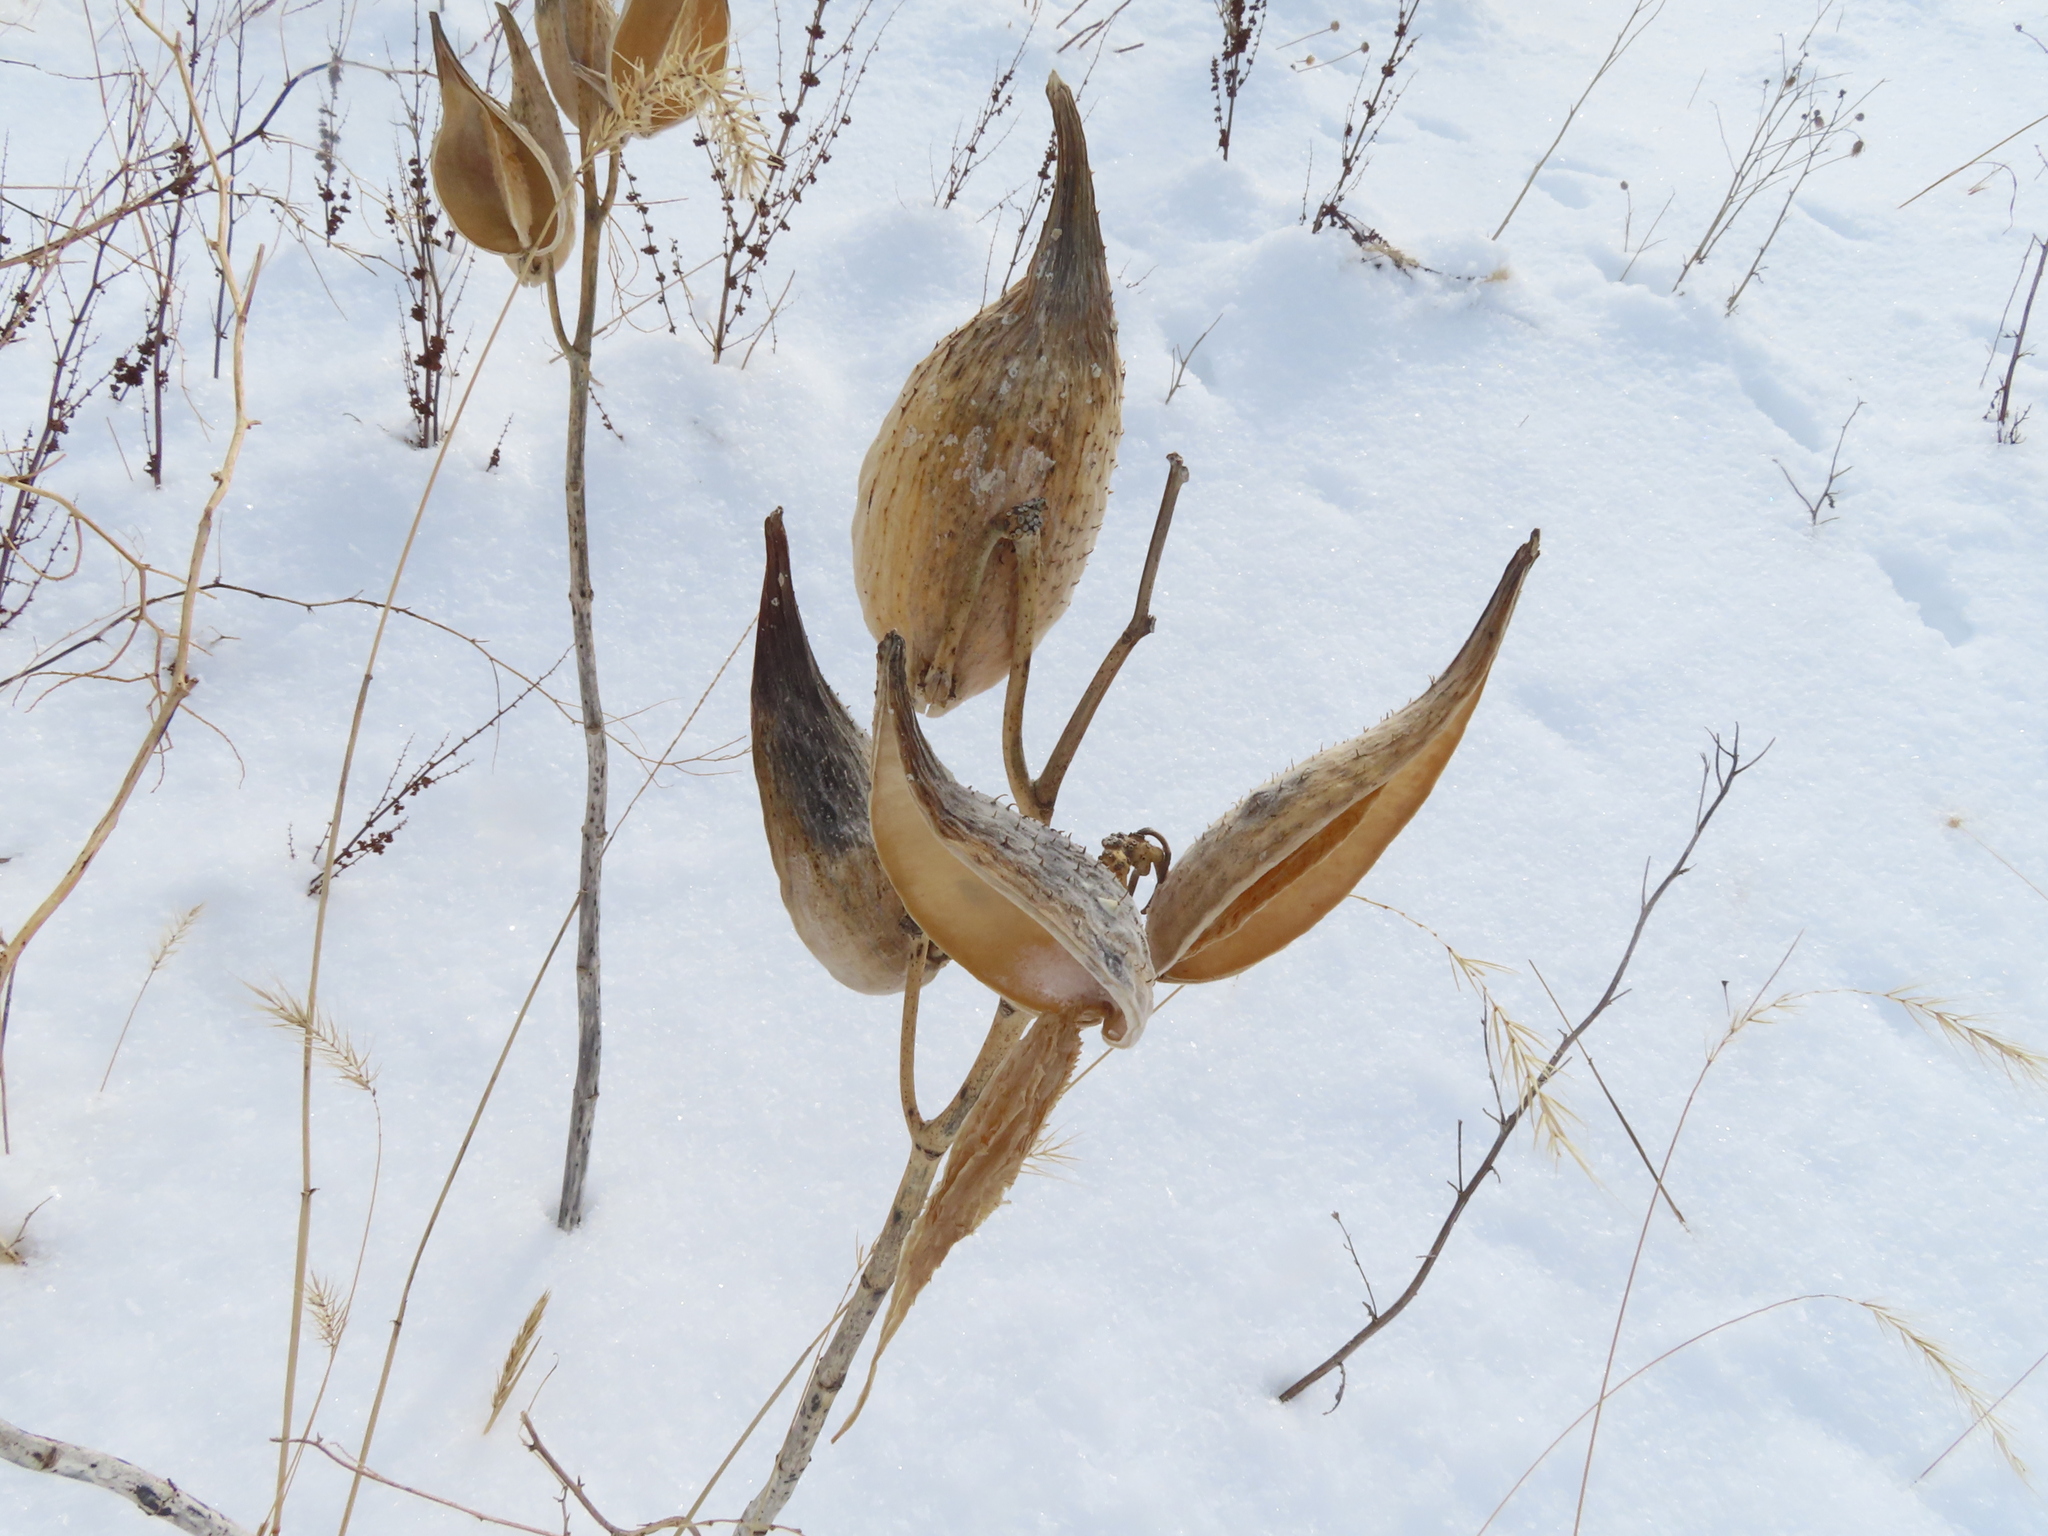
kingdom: Plantae
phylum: Tracheophyta
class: Magnoliopsida
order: Gentianales
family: Apocynaceae
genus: Asclepias
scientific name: Asclepias syriaca
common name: Common milkweed
